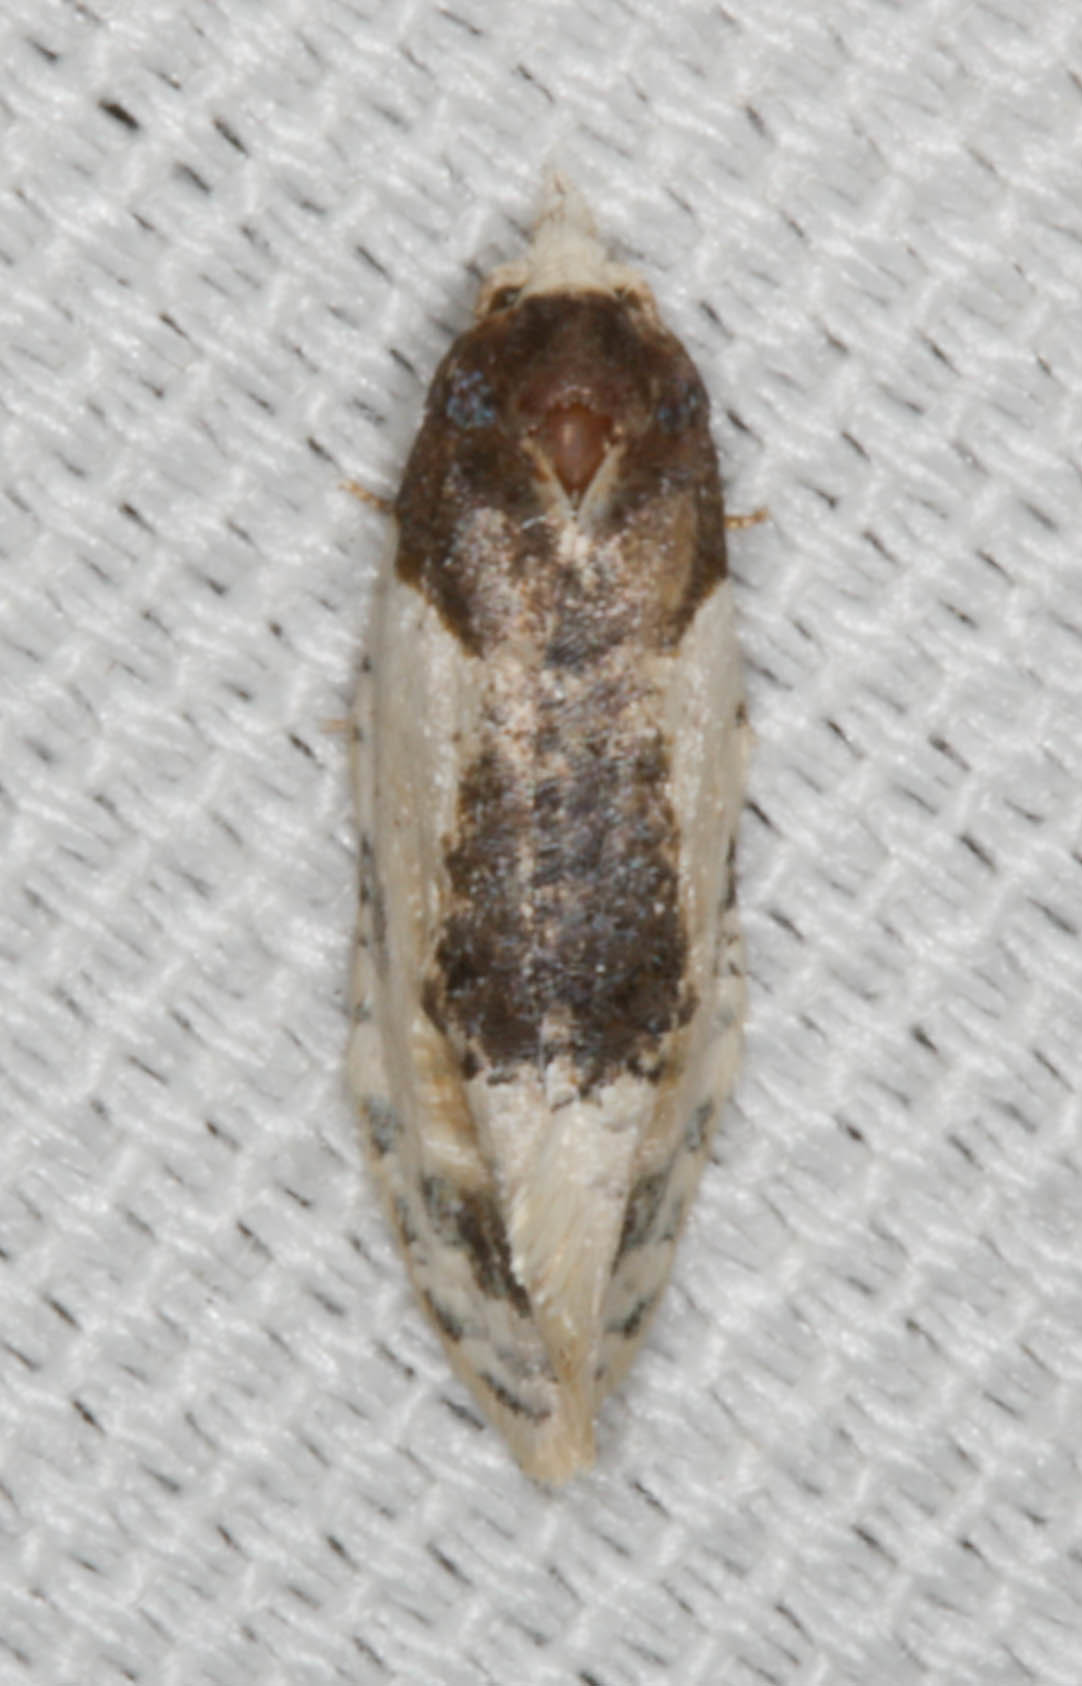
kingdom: Animalia
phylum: Arthropoda
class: Insecta
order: Lepidoptera
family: Tortricidae
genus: Henricus
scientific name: Henricus edwardsiana
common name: Contrasting henricus moth
